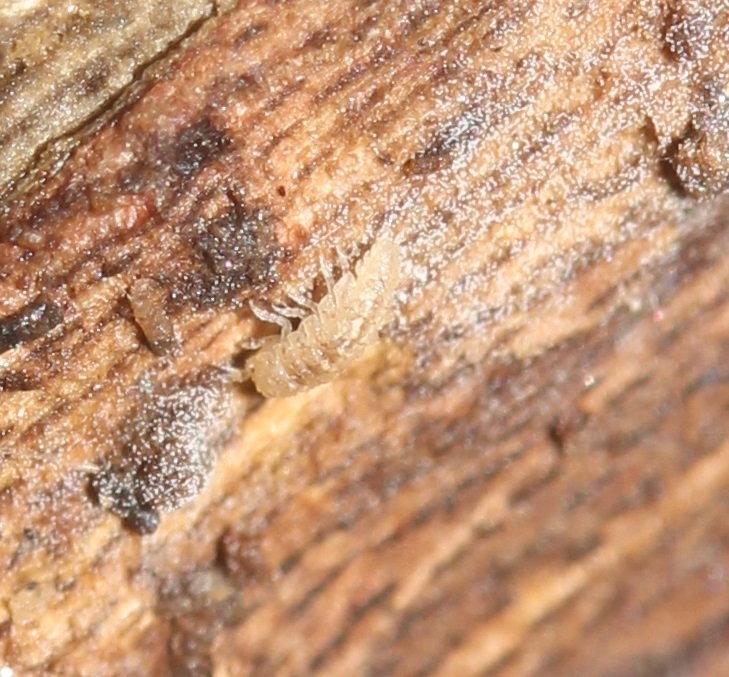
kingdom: Animalia
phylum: Arthropoda
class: Malacostraca
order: Isopoda
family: Trichoniscidae
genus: Haplophthalmus
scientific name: Haplophthalmus danicus
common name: Pillbug
